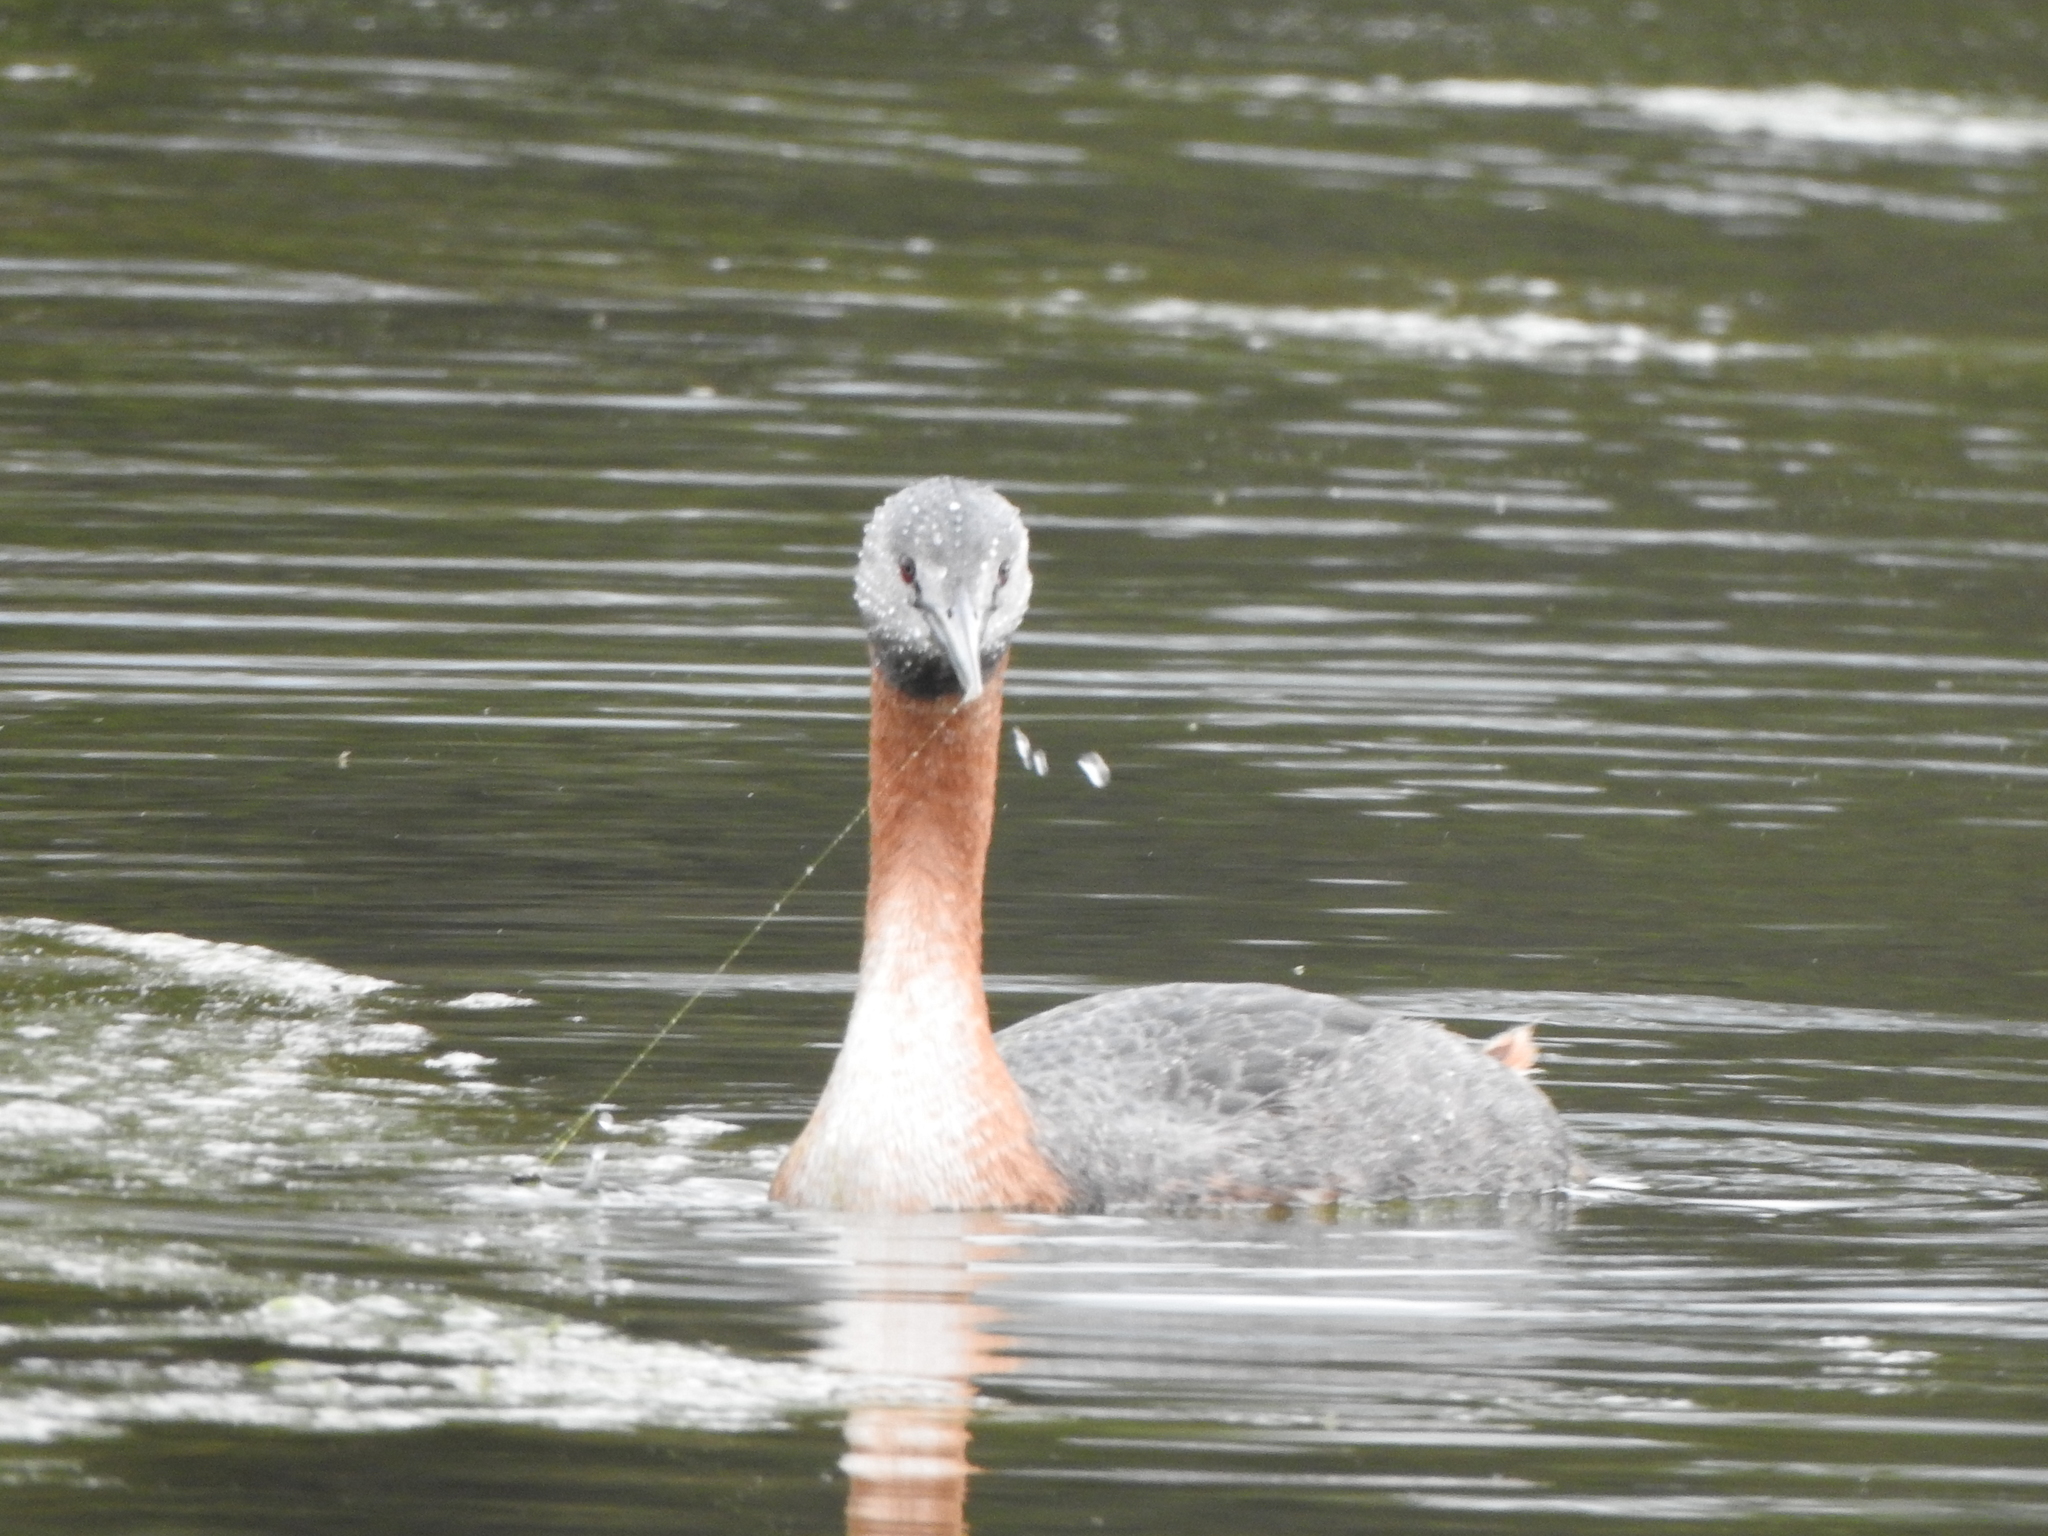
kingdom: Animalia
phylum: Chordata
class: Aves
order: Podicipediformes
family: Podicipedidae
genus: Podiceps
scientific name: Podiceps major
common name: Great grebe
